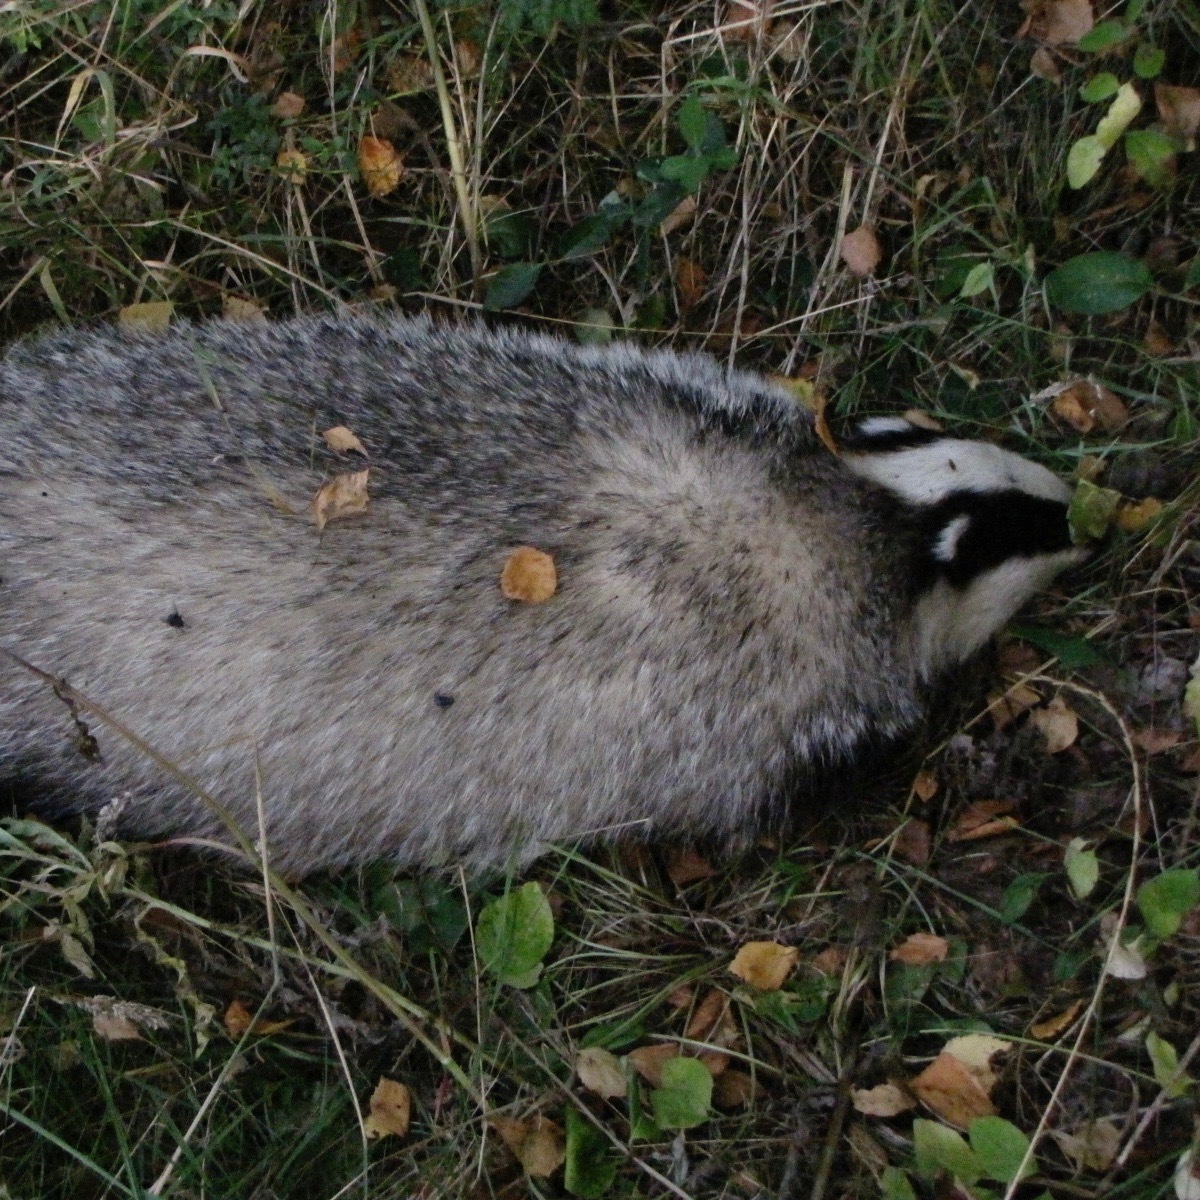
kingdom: Animalia
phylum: Chordata
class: Mammalia
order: Carnivora
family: Mustelidae
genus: Meles
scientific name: Meles meles
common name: Eurasian badger
